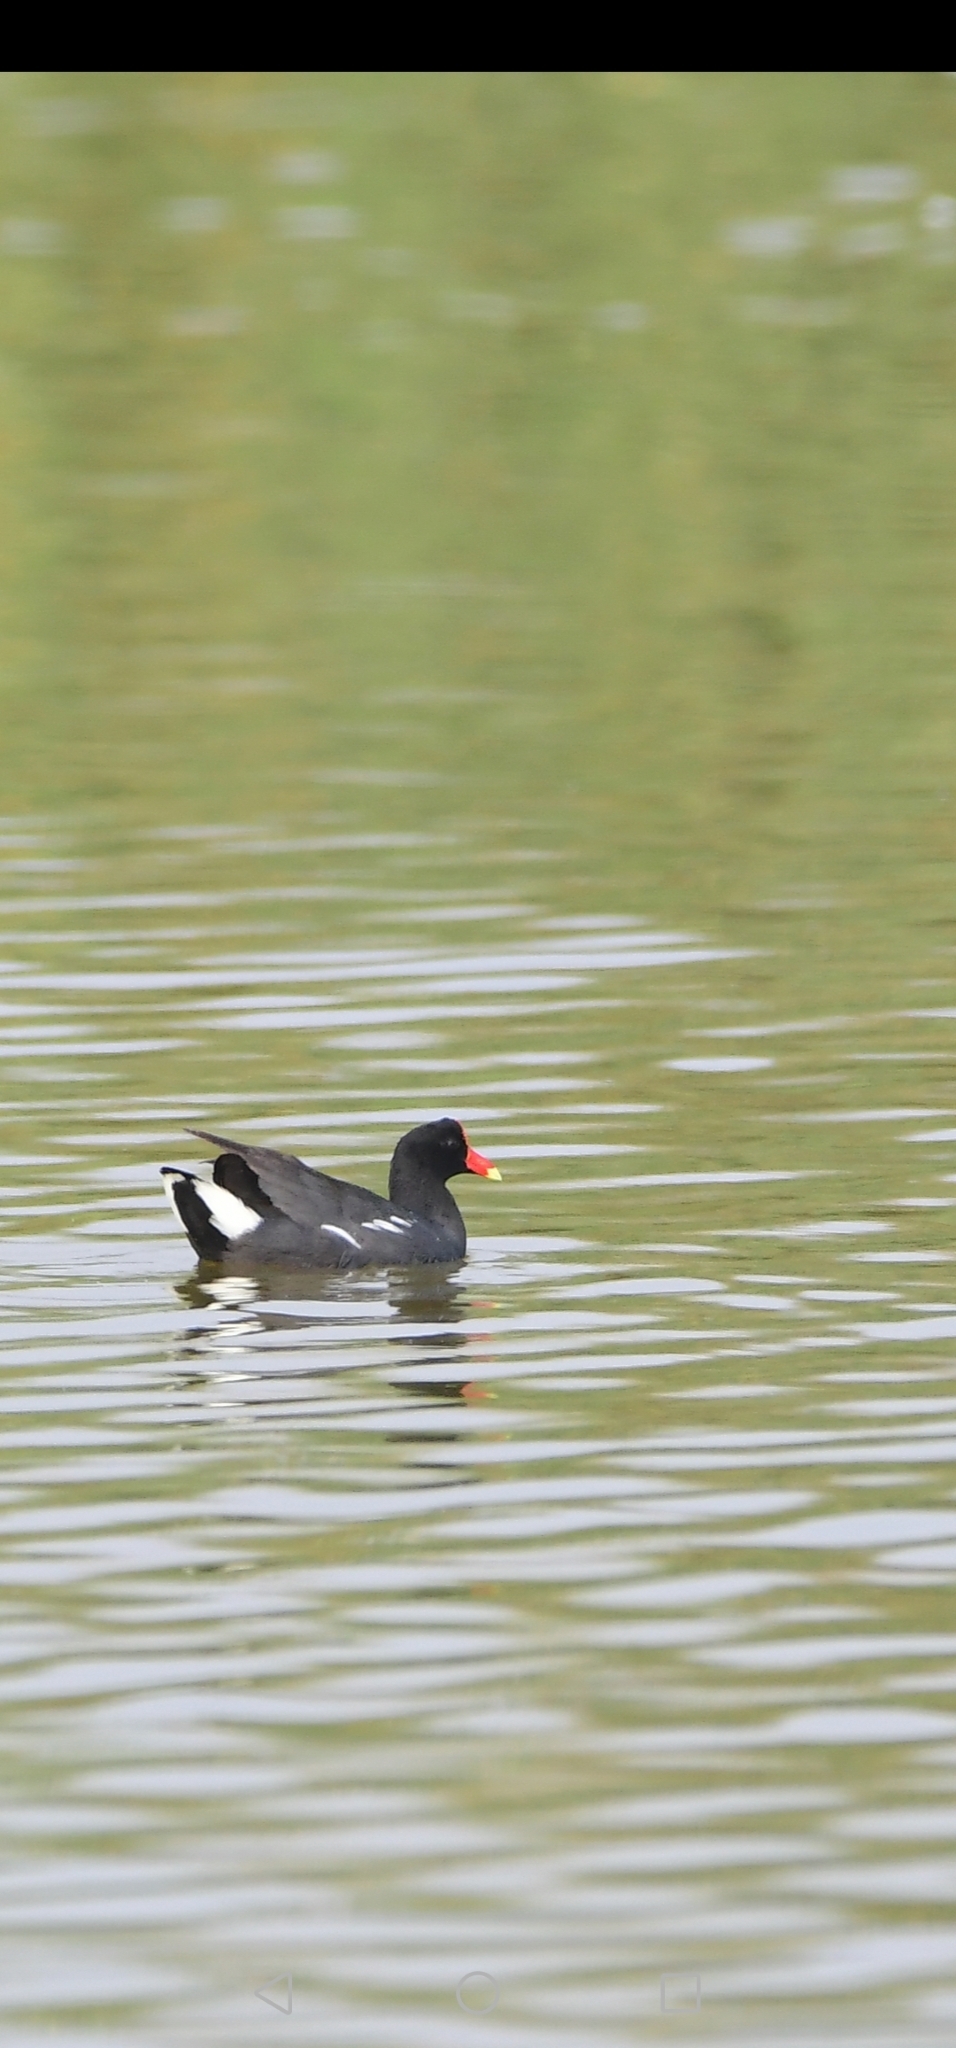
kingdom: Animalia
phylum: Chordata
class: Aves
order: Gruiformes
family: Rallidae
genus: Gallinula
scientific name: Gallinula chloropus
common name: Common moorhen
